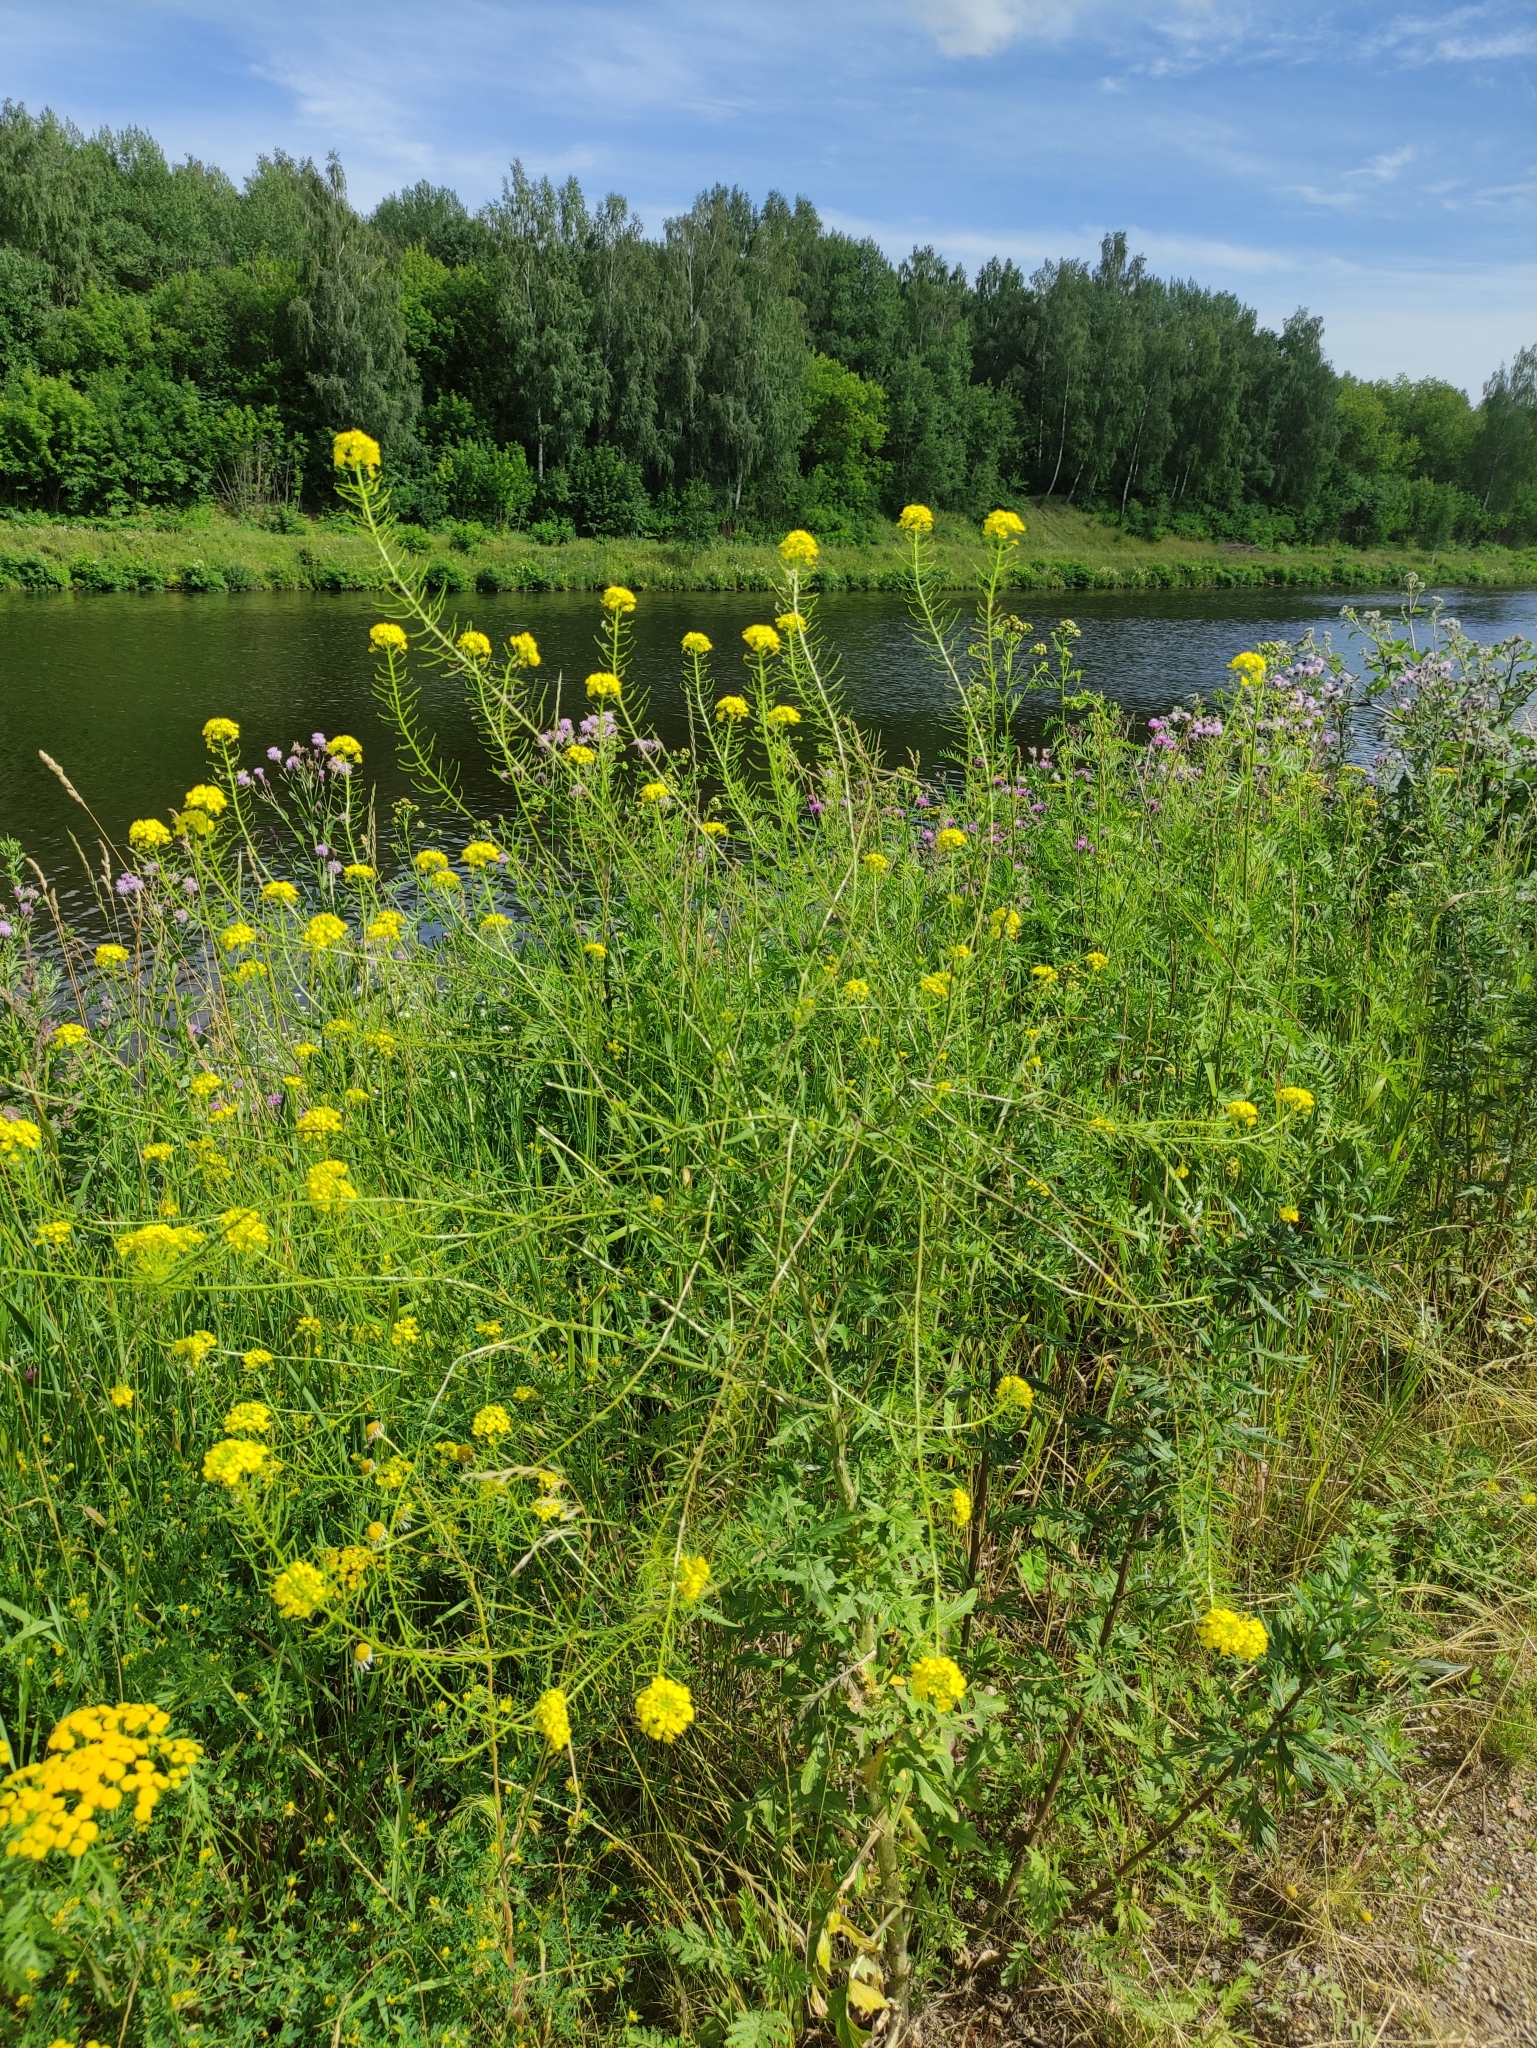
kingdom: Plantae
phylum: Tracheophyta
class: Magnoliopsida
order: Brassicales
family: Brassicaceae
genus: Sisymbrium
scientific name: Sisymbrium loeselii
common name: False london-rocket
